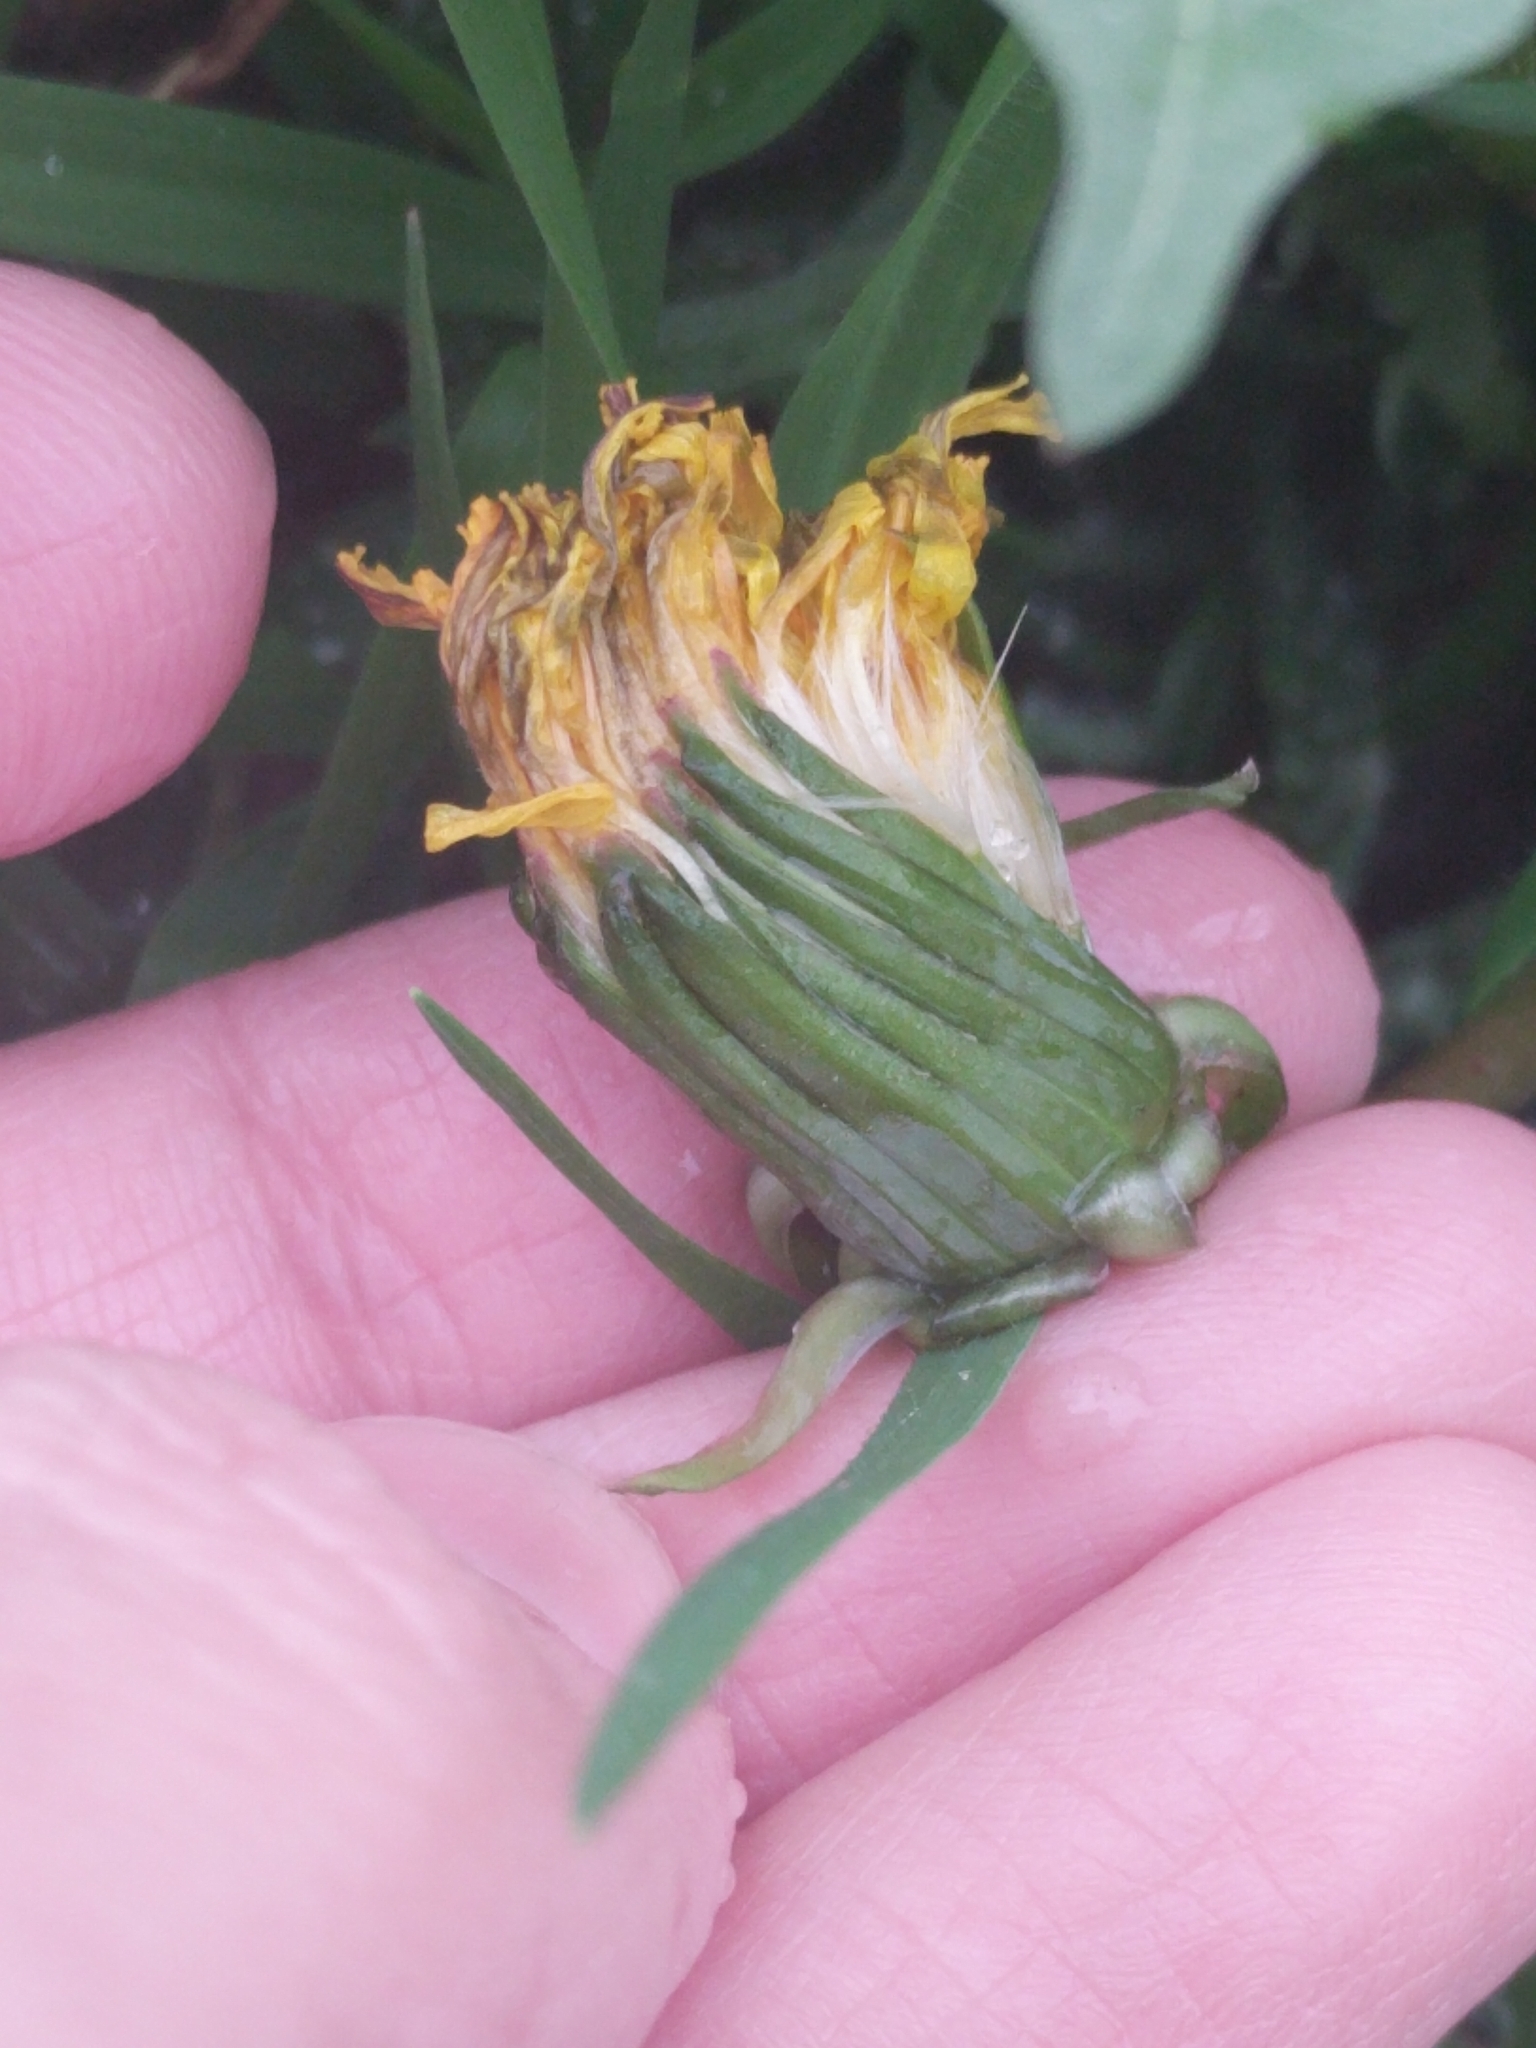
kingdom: Plantae
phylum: Tracheophyta
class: Magnoliopsida
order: Asterales
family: Asteraceae
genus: Taraxacum
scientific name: Taraxacum erythrospermum
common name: Rock dandelion
